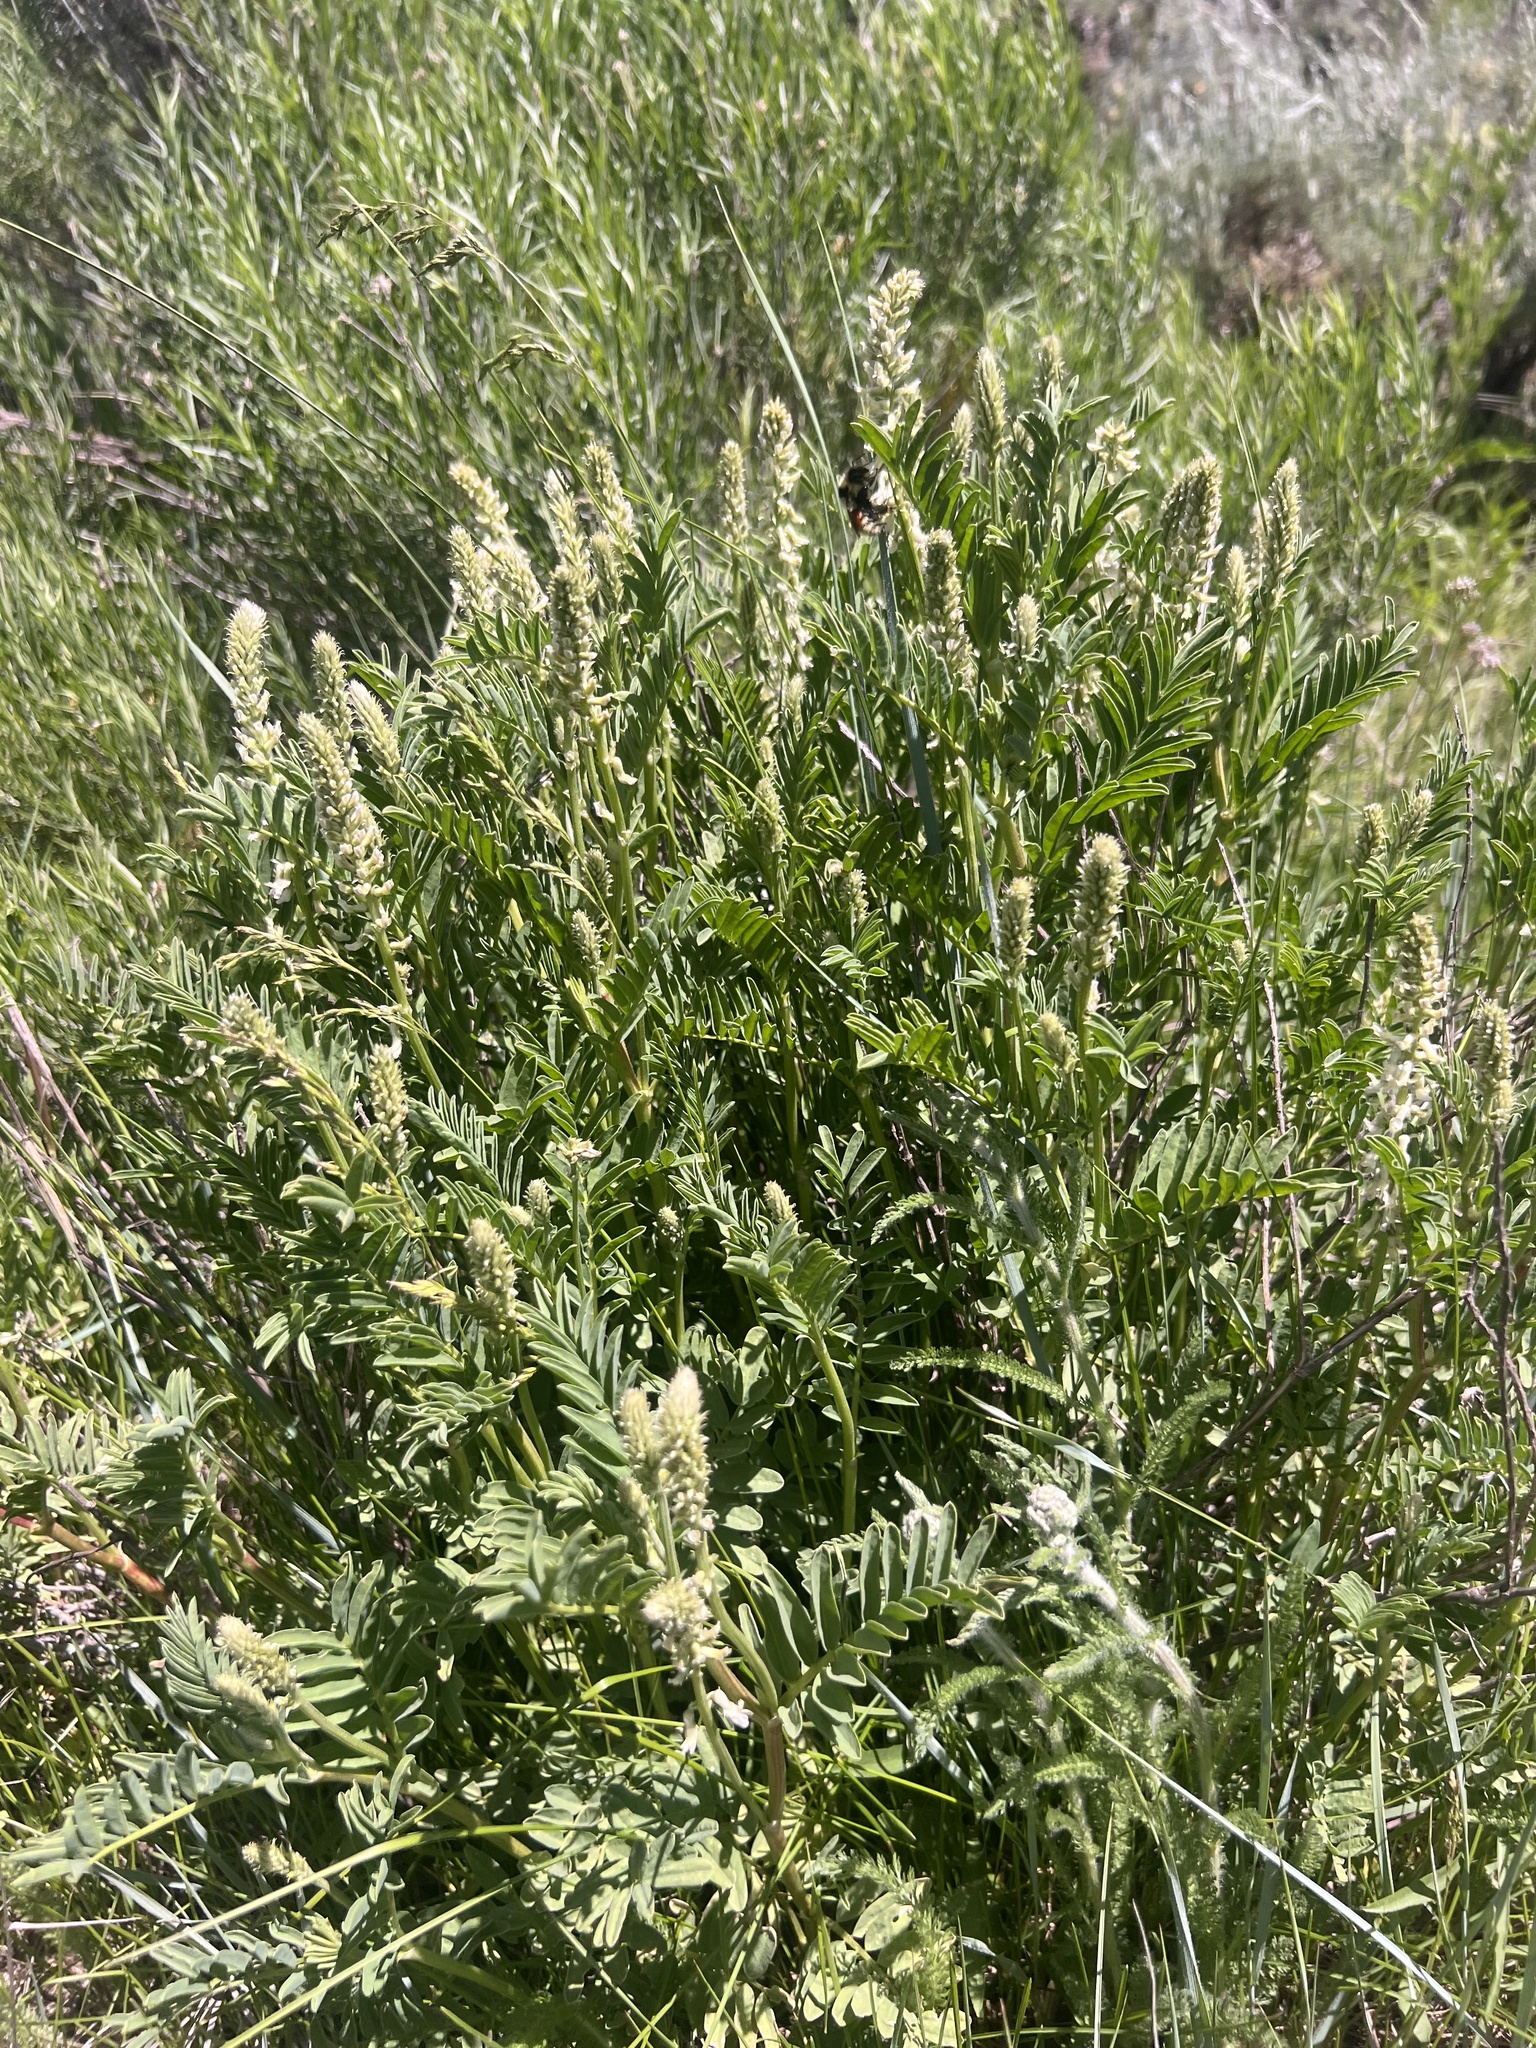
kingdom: Plantae
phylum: Tracheophyta
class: Magnoliopsida
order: Fabales
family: Fabaceae
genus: Astragalus
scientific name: Astragalus bisulcatus
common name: Two-groove milk-vetch
